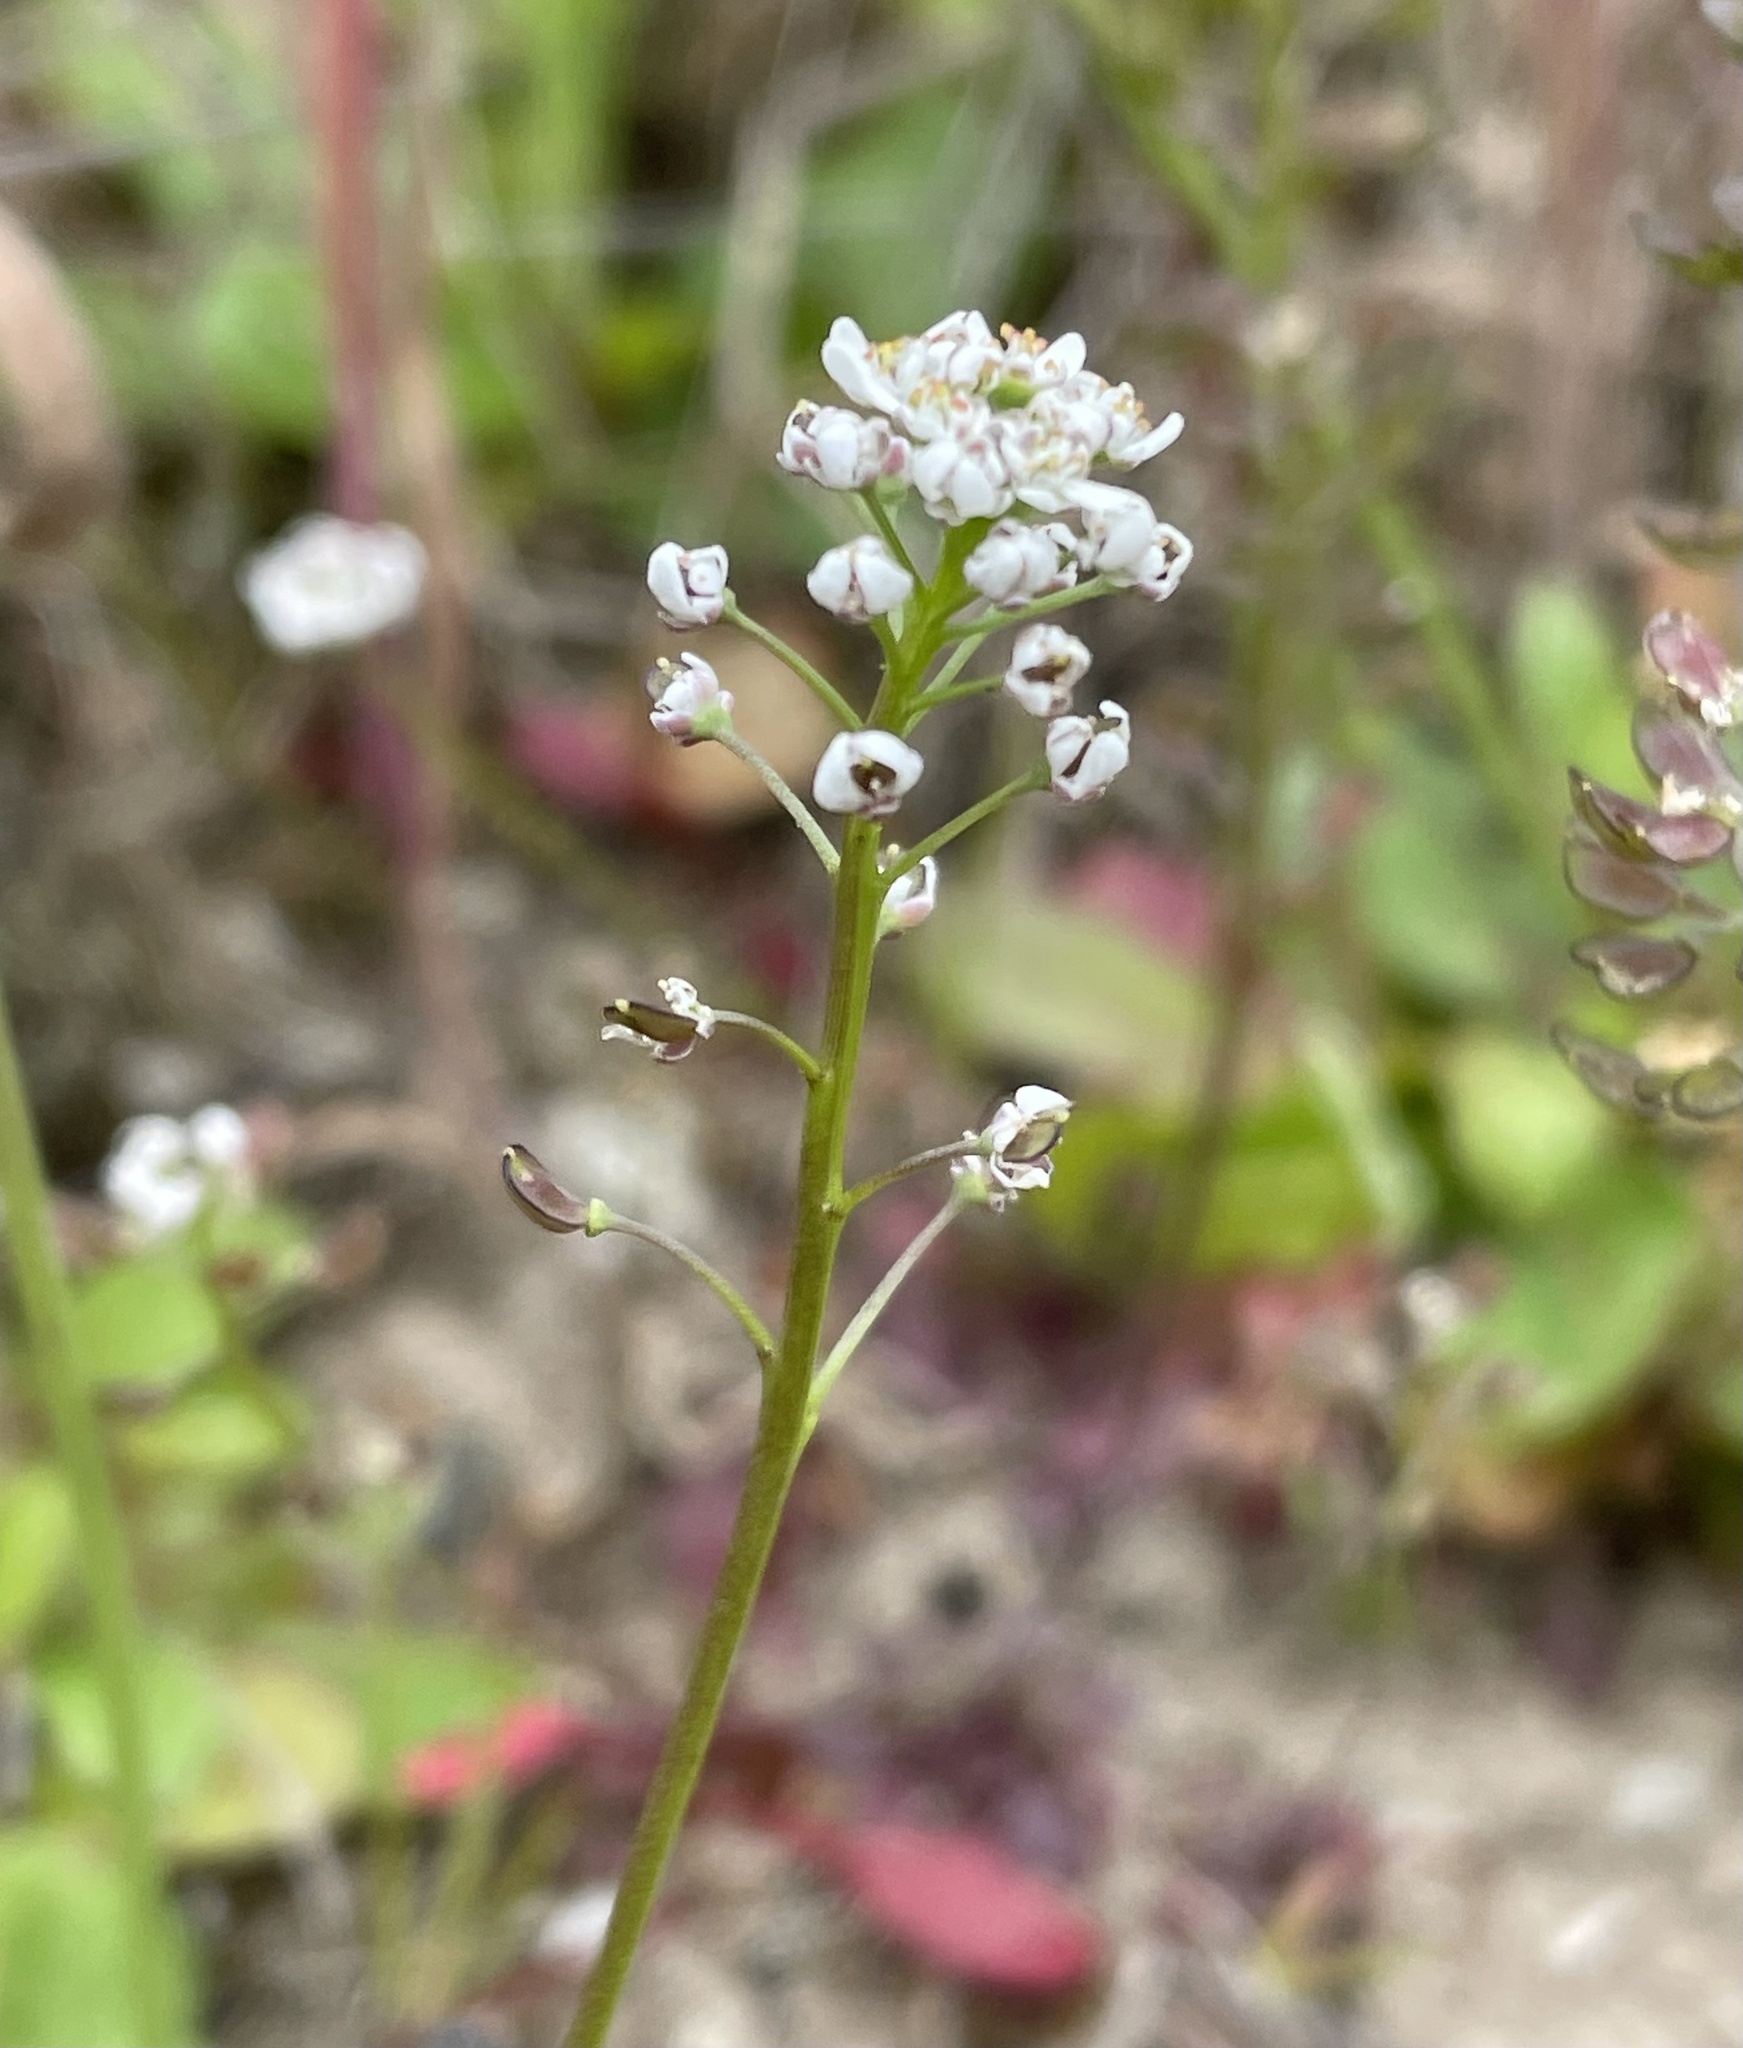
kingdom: Plantae
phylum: Tracheophyta
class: Magnoliopsida
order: Brassicales
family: Brassicaceae
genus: Teesdalia
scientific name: Teesdalia nudicaulis
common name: Shepherd's cress
